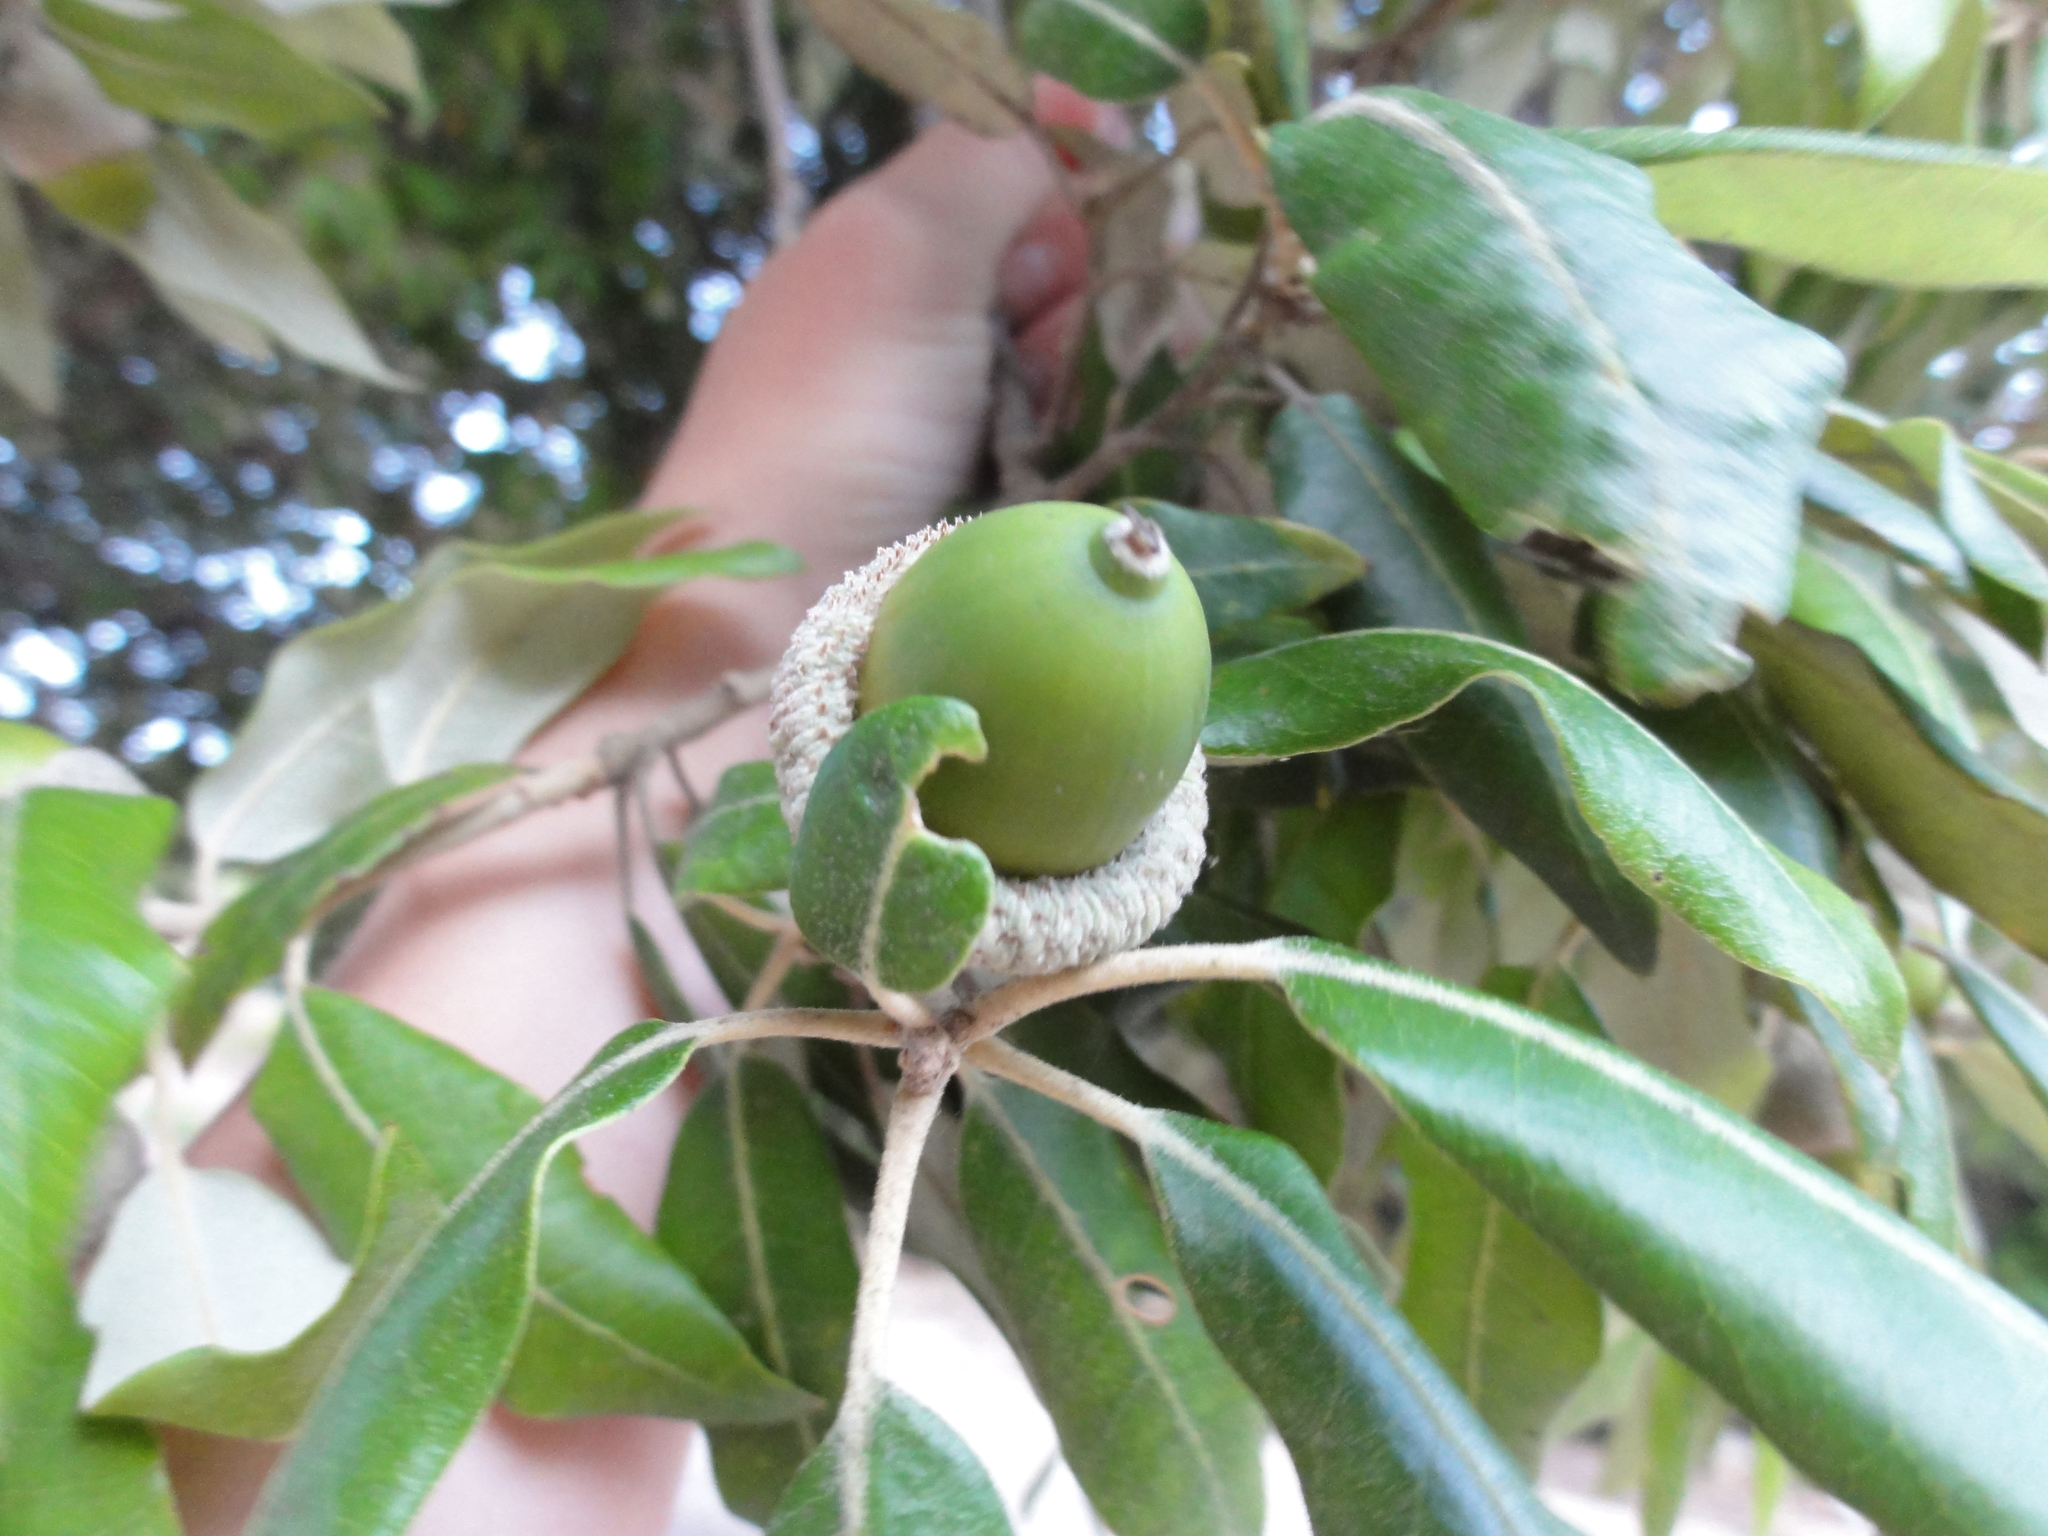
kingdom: Plantae
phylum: Tracheophyta
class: Magnoliopsida
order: Fagales
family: Fagaceae
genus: Quercus
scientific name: Quercus ilex
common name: Evergreen oak
